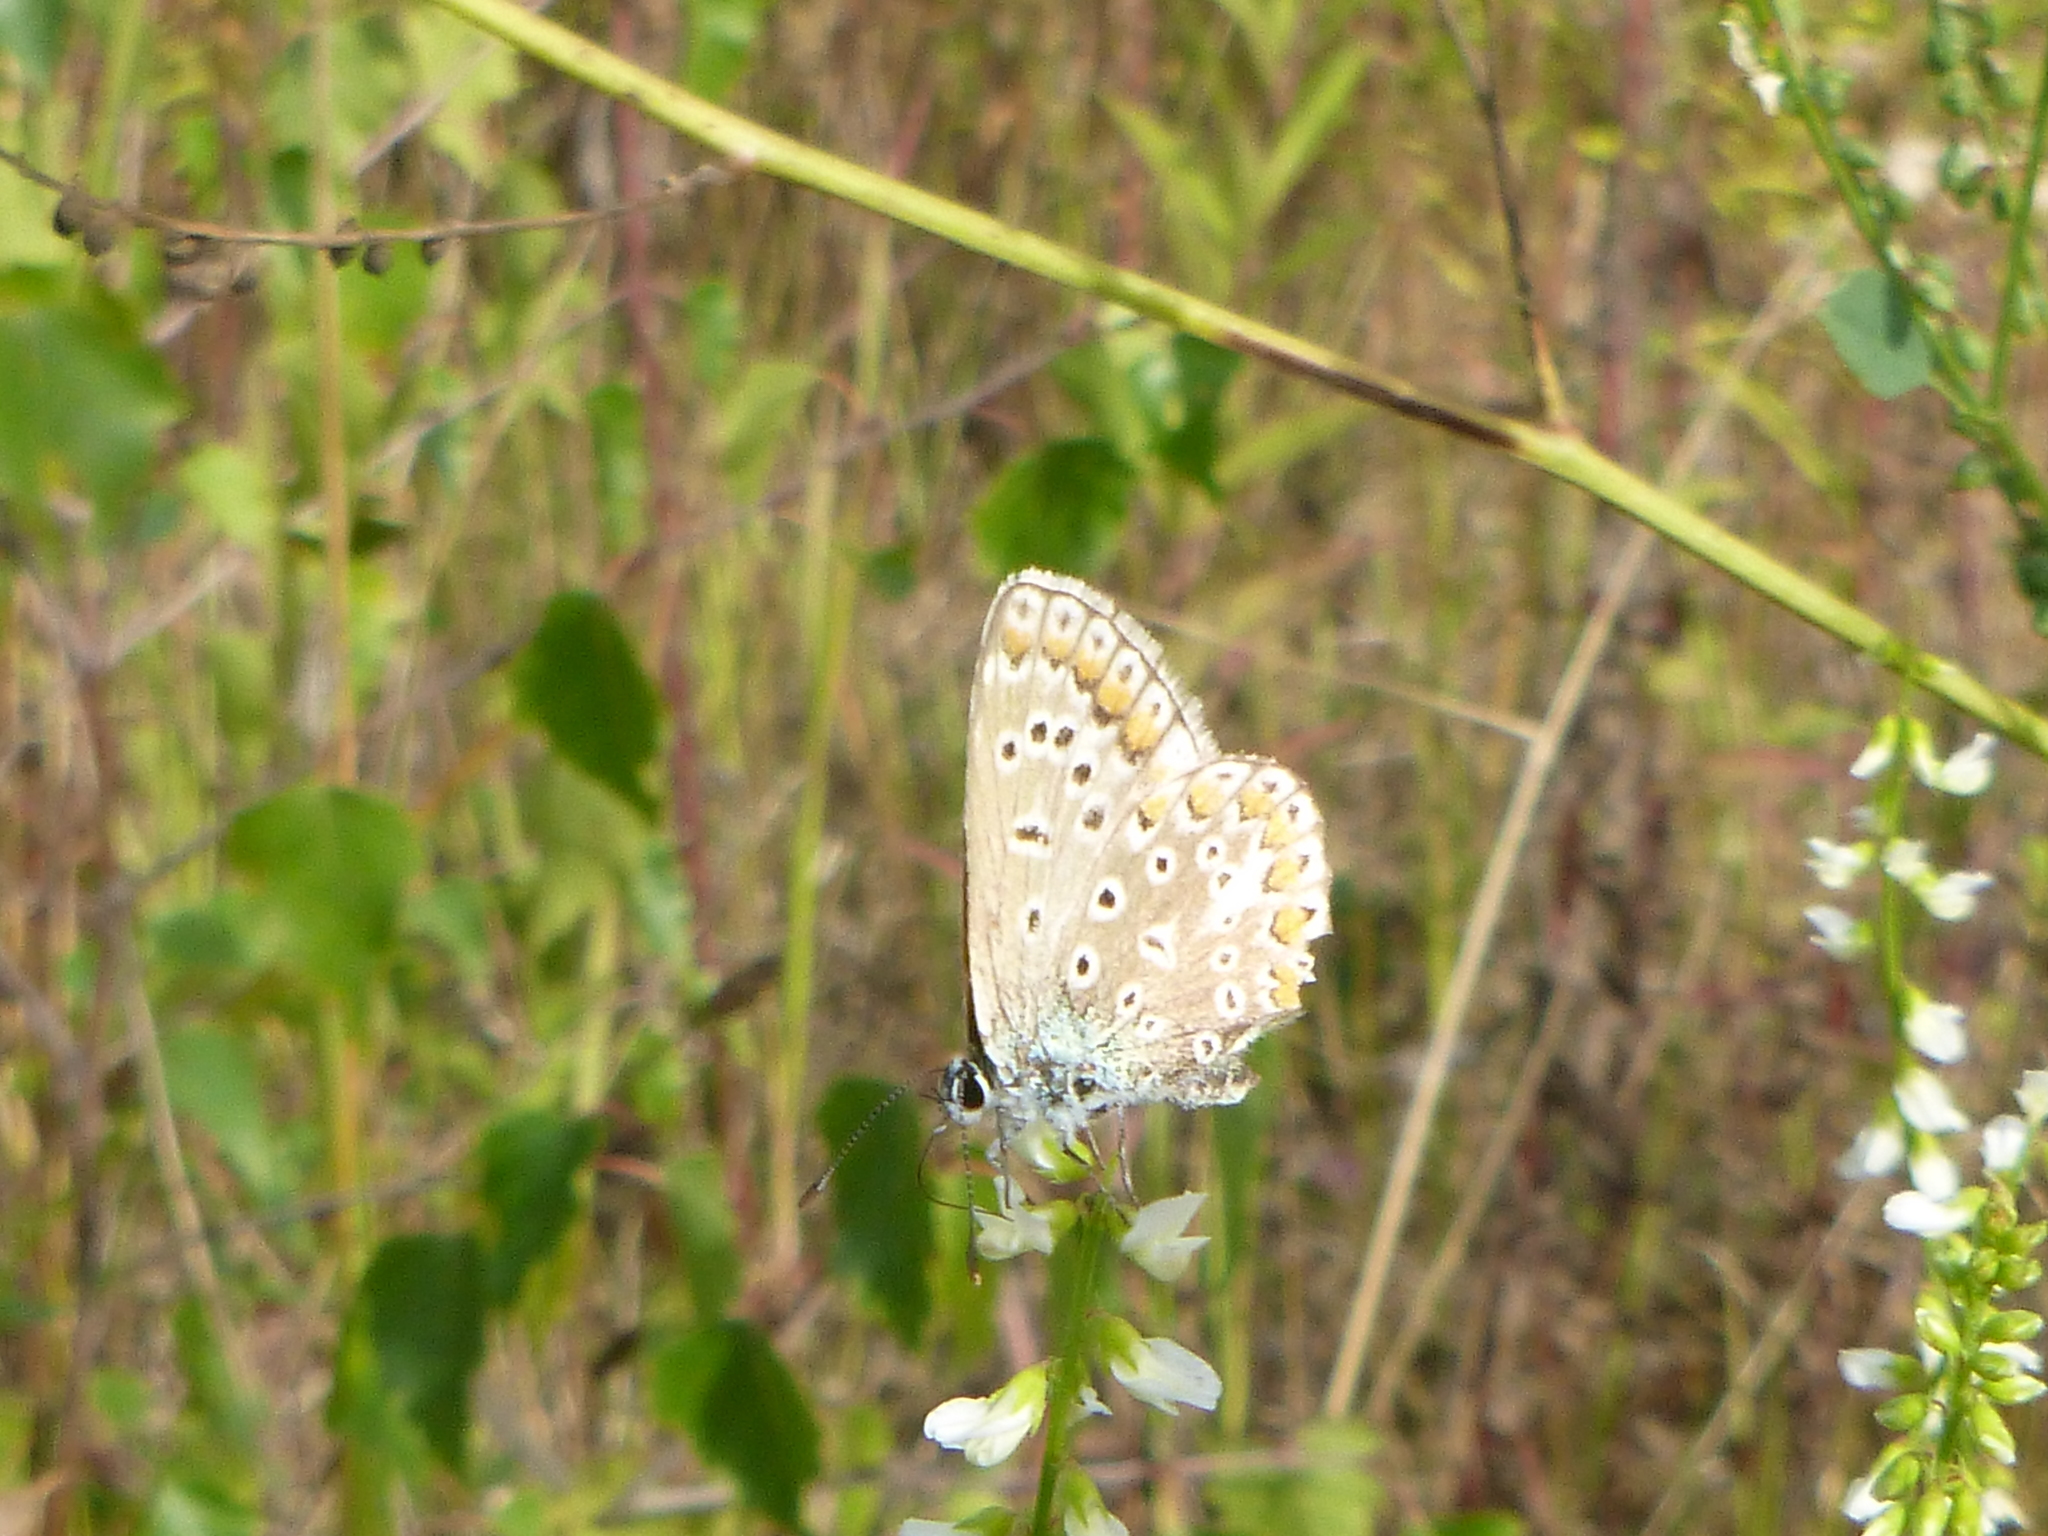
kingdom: Animalia
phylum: Arthropoda
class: Insecta
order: Lepidoptera
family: Lycaenidae
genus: Polyommatus
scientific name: Polyommatus icarus
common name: Common blue
